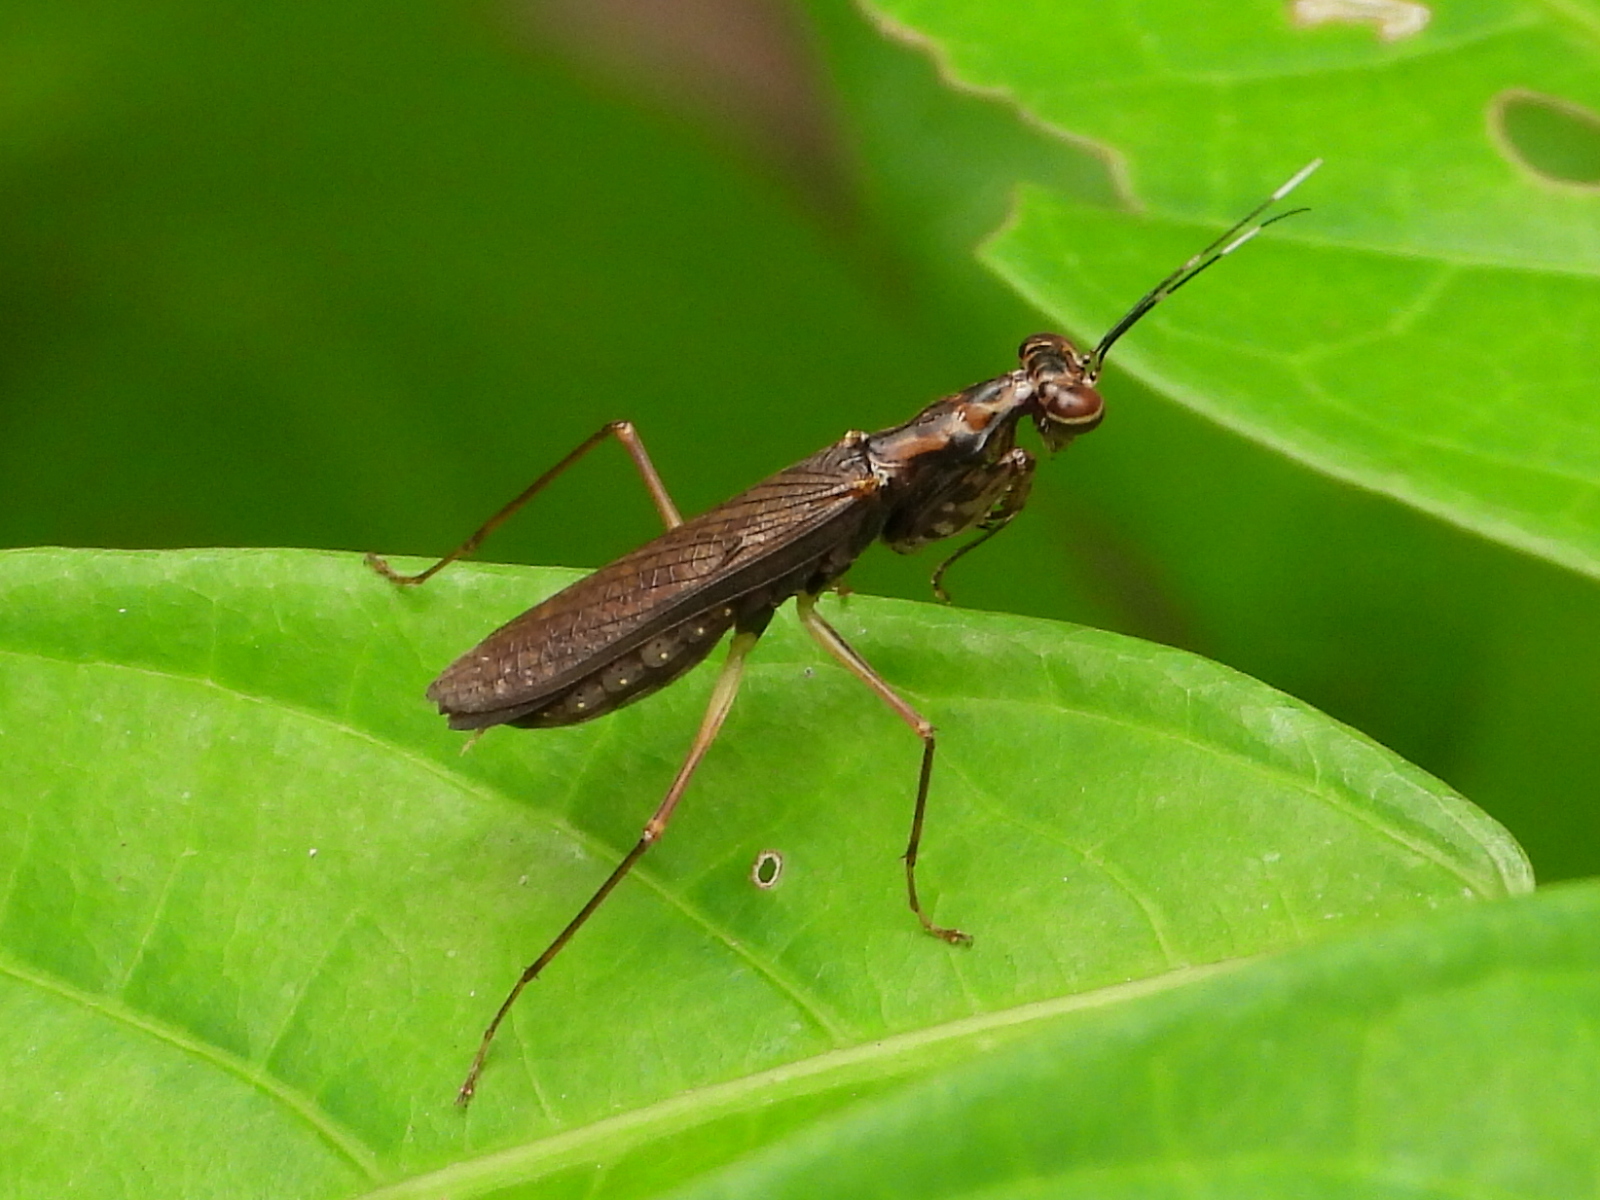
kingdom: Animalia
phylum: Arthropoda
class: Insecta
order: Mantodea
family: Gonypetidae
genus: Spilomantis
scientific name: Spilomantis occipitalis
